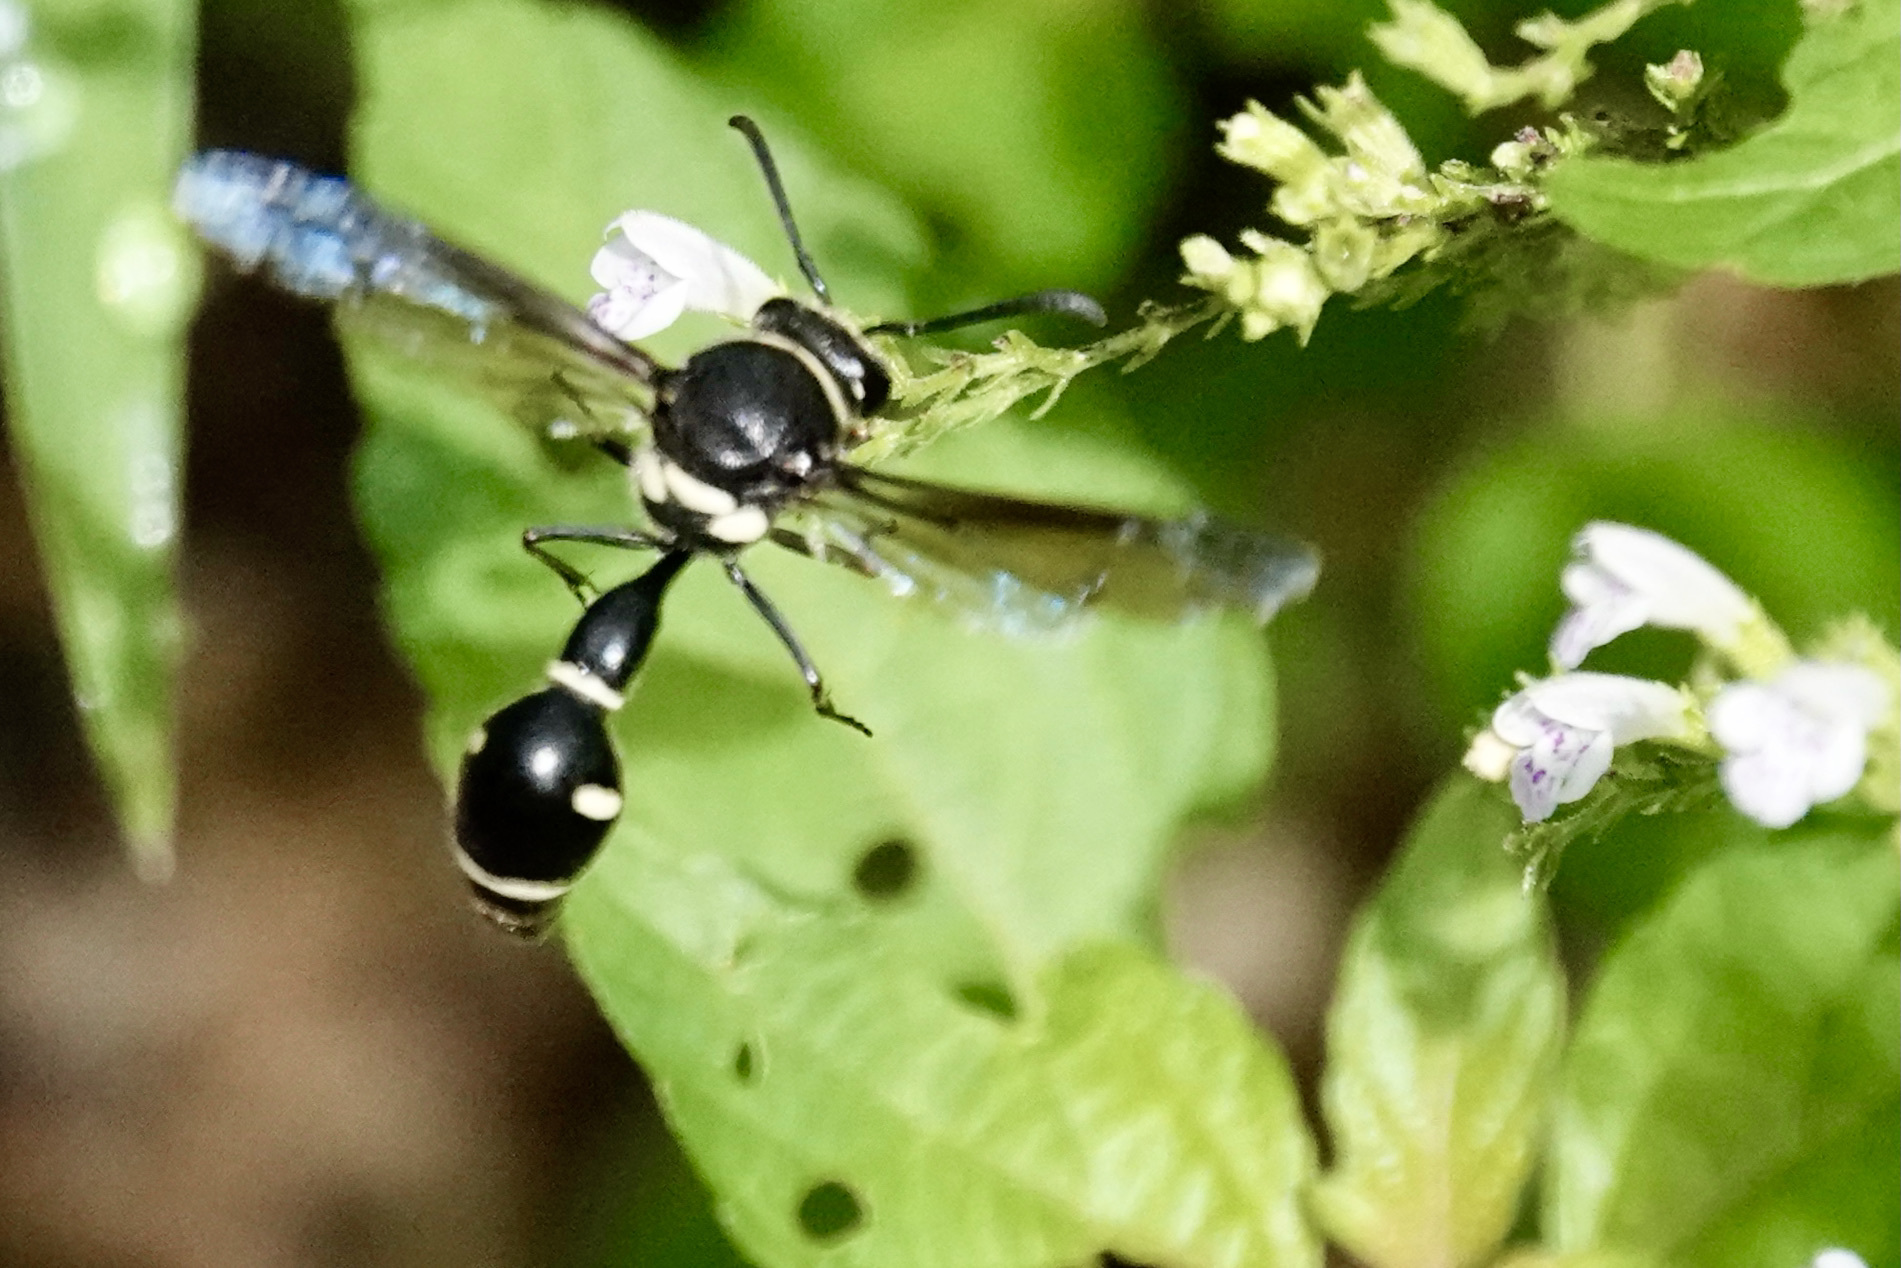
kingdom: Animalia
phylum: Arthropoda
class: Insecta
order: Hymenoptera
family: Vespidae
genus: Eumenes
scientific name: Eumenes fraternus
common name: Fraternal potter wasp
